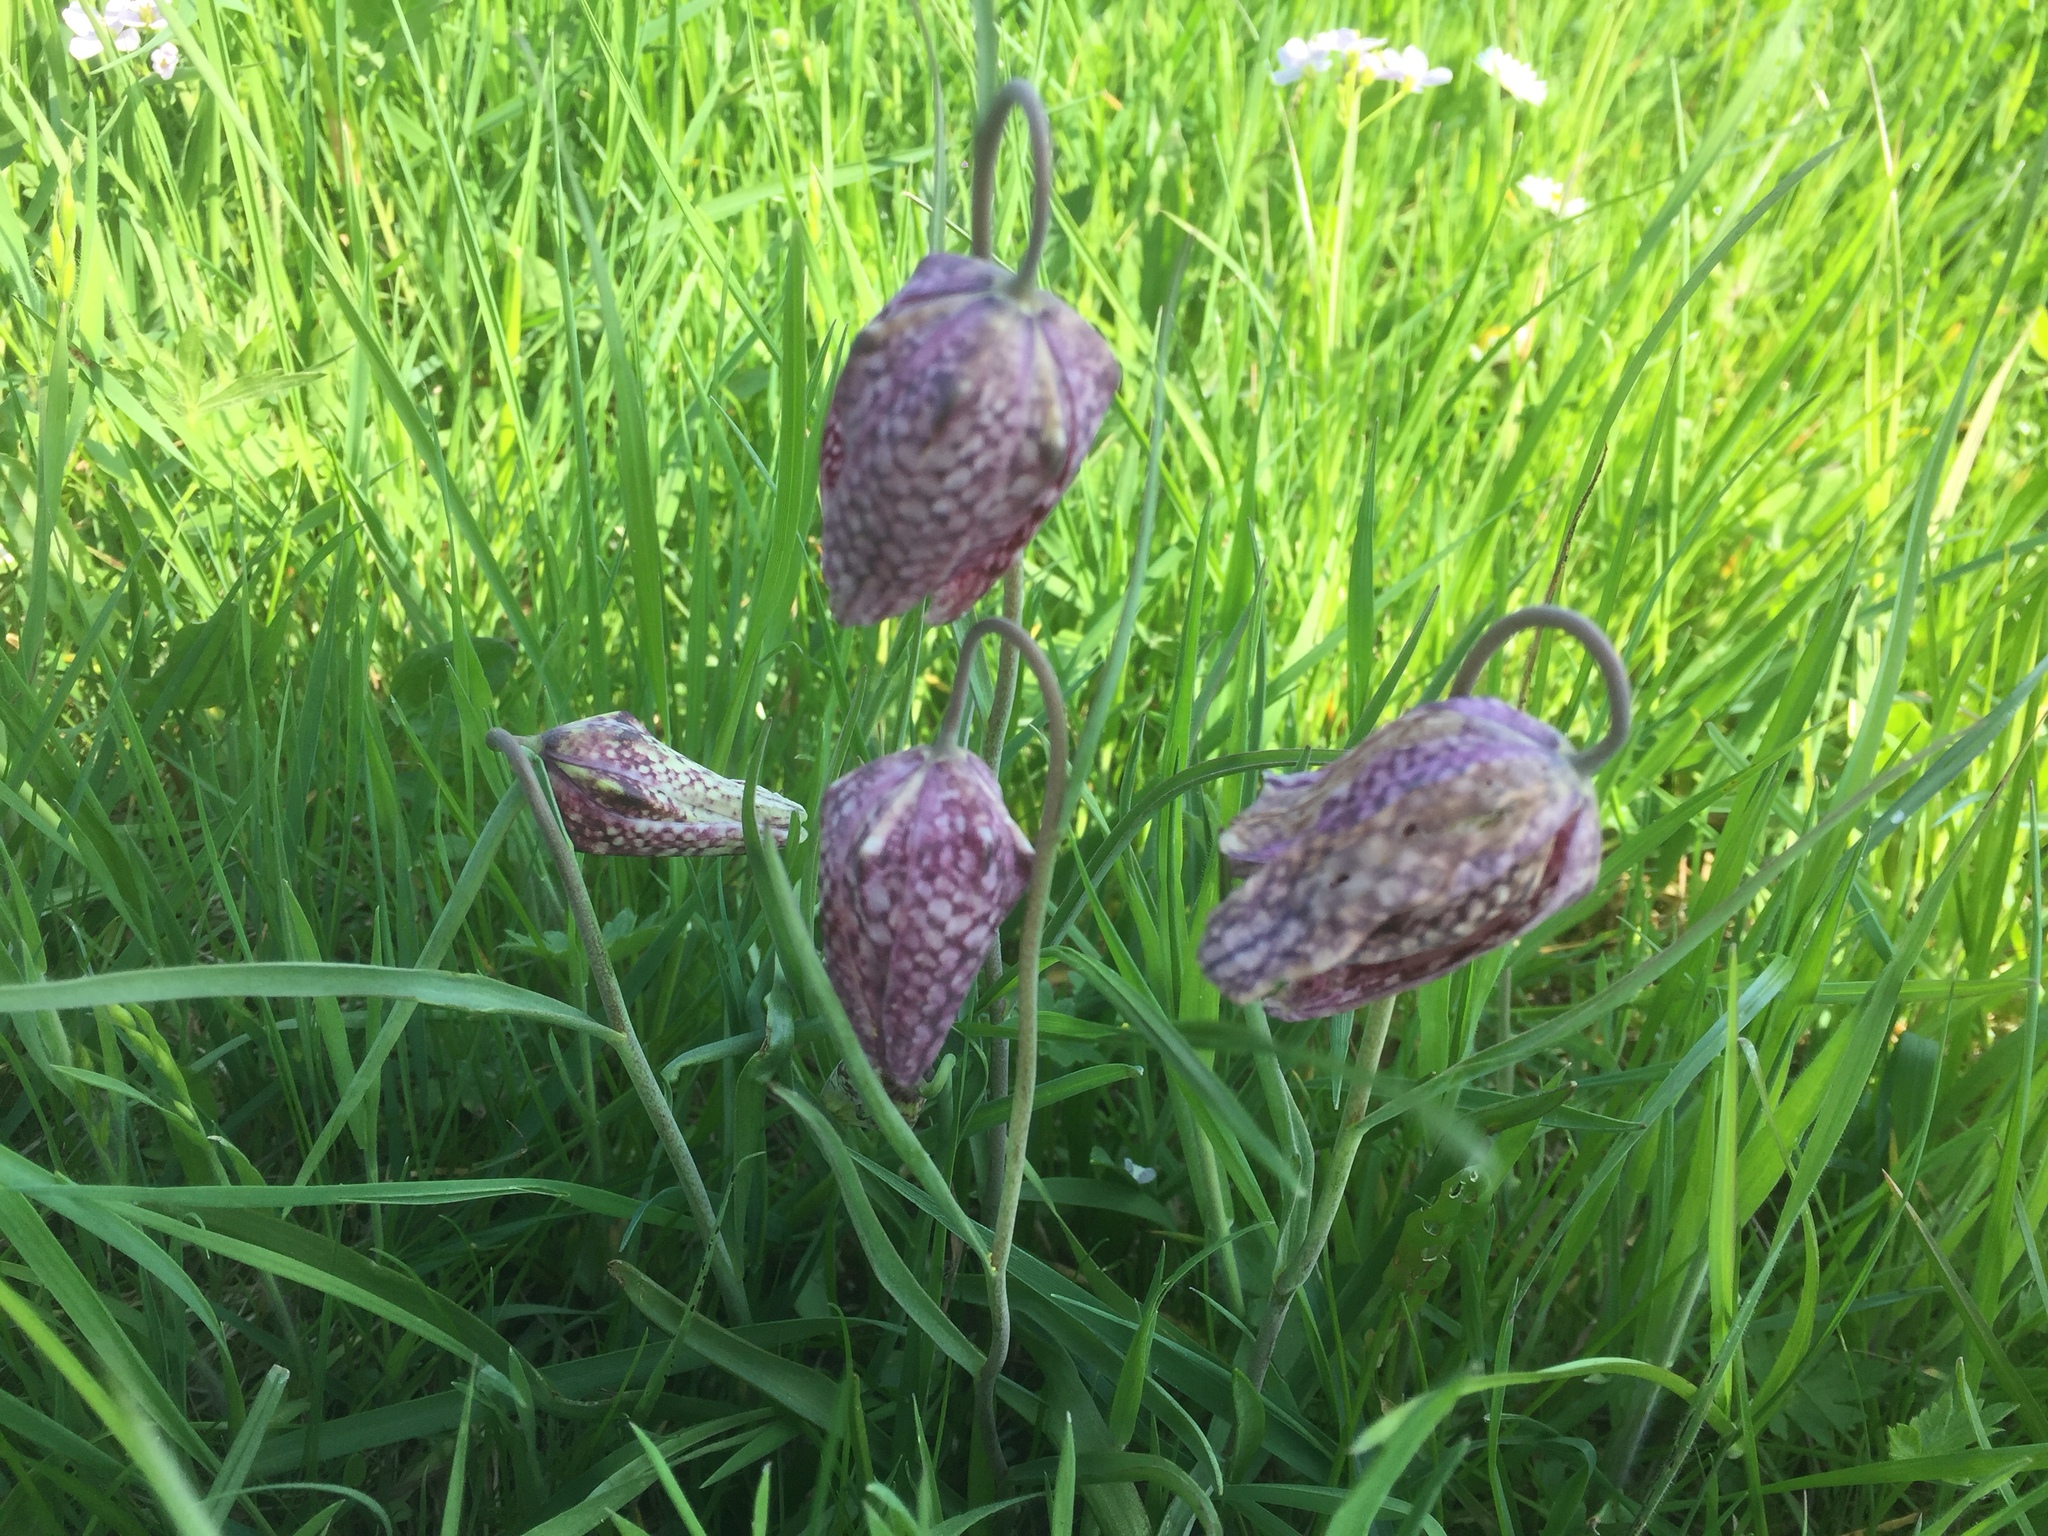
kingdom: Plantae
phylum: Tracheophyta
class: Liliopsida
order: Liliales
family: Liliaceae
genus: Fritillaria
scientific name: Fritillaria meleagris
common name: Fritillary
